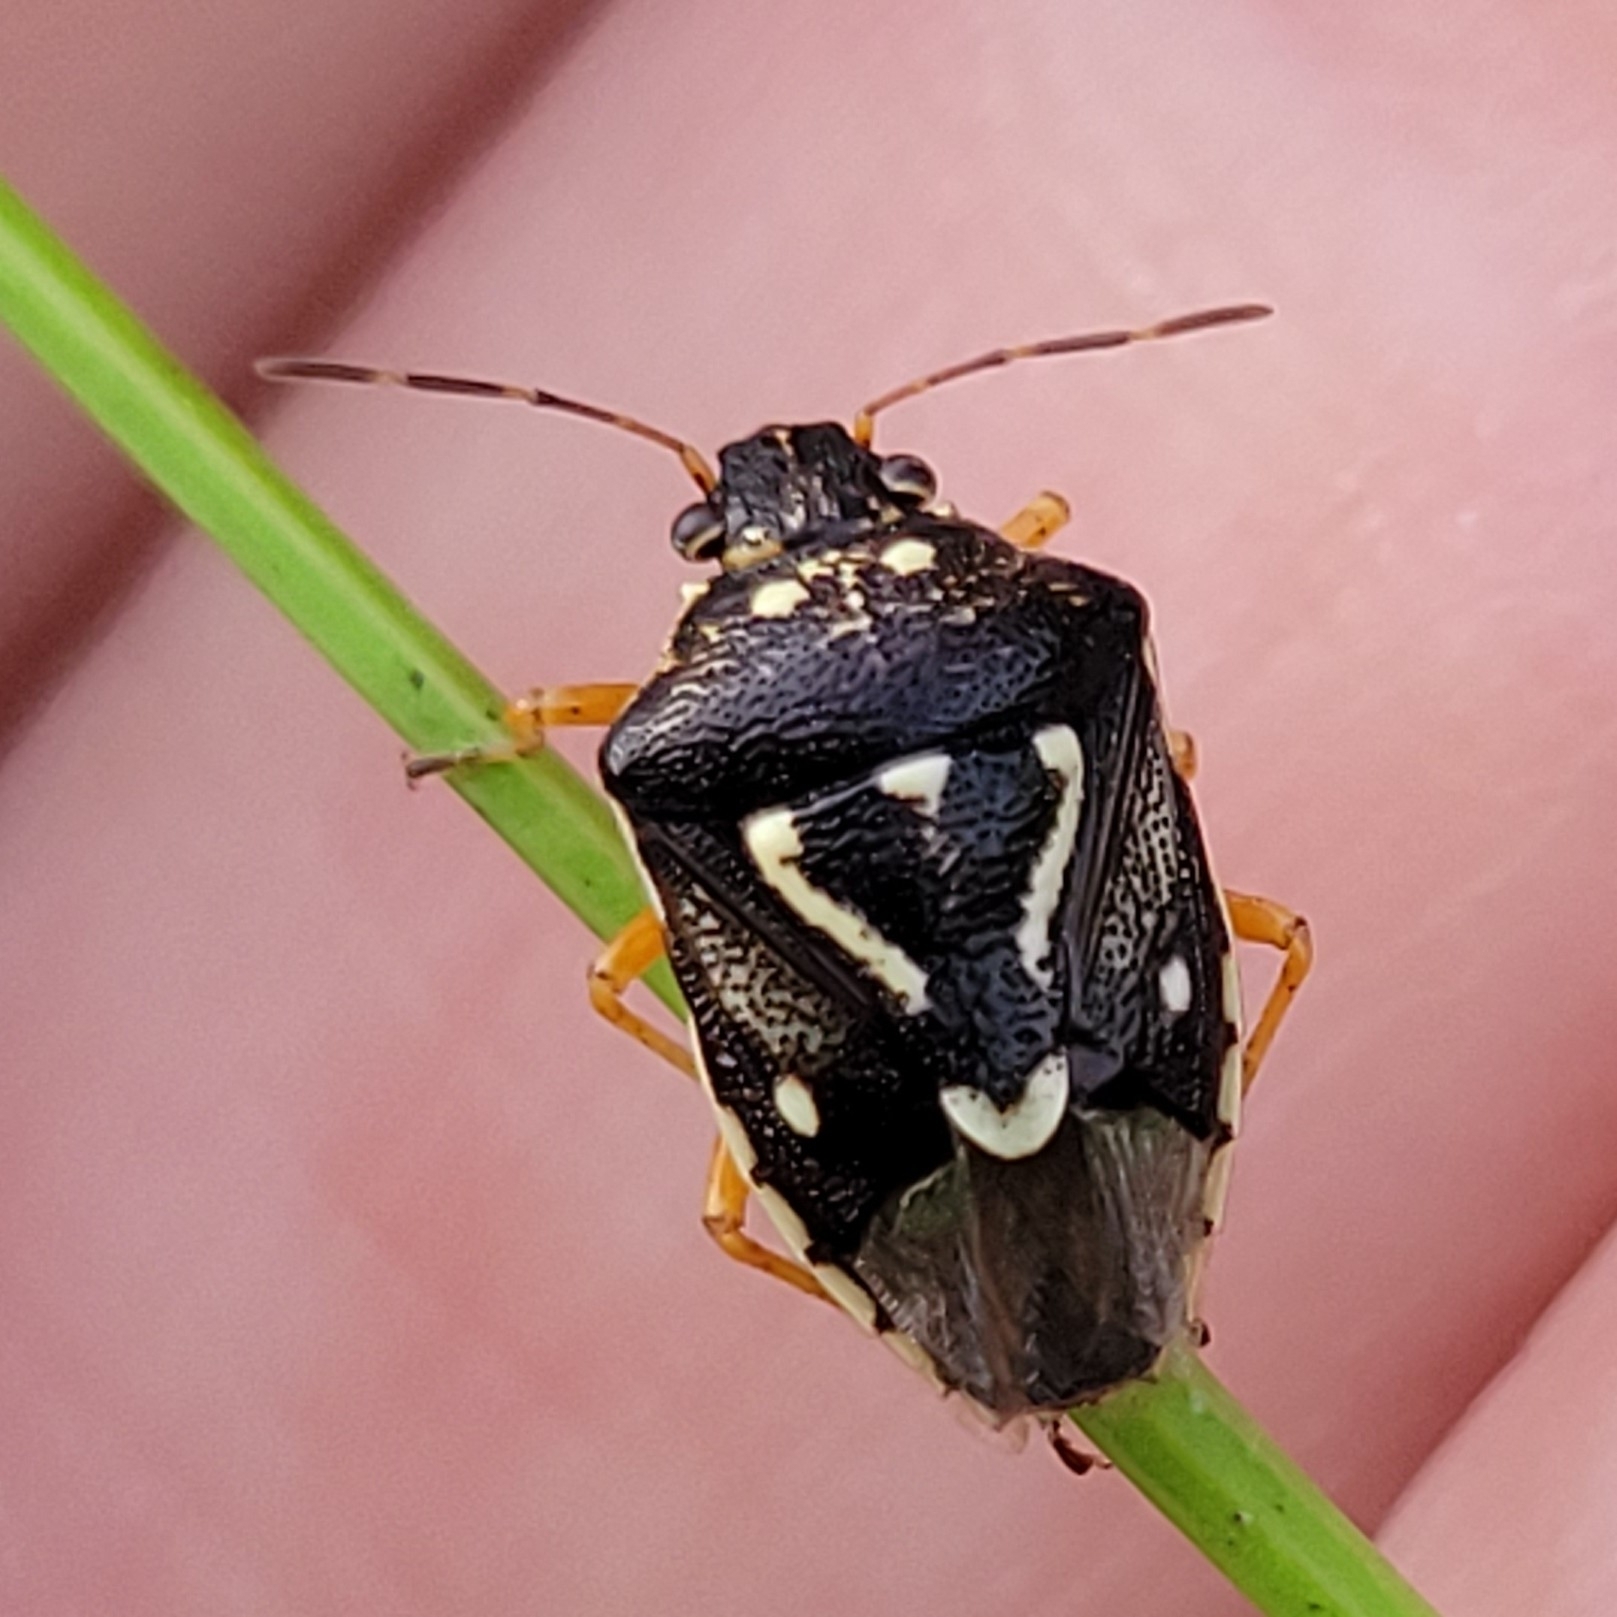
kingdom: Animalia
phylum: Arthropoda
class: Insecta
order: Hemiptera
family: Pentatomidae
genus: Mormidea
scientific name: Mormidea pama
